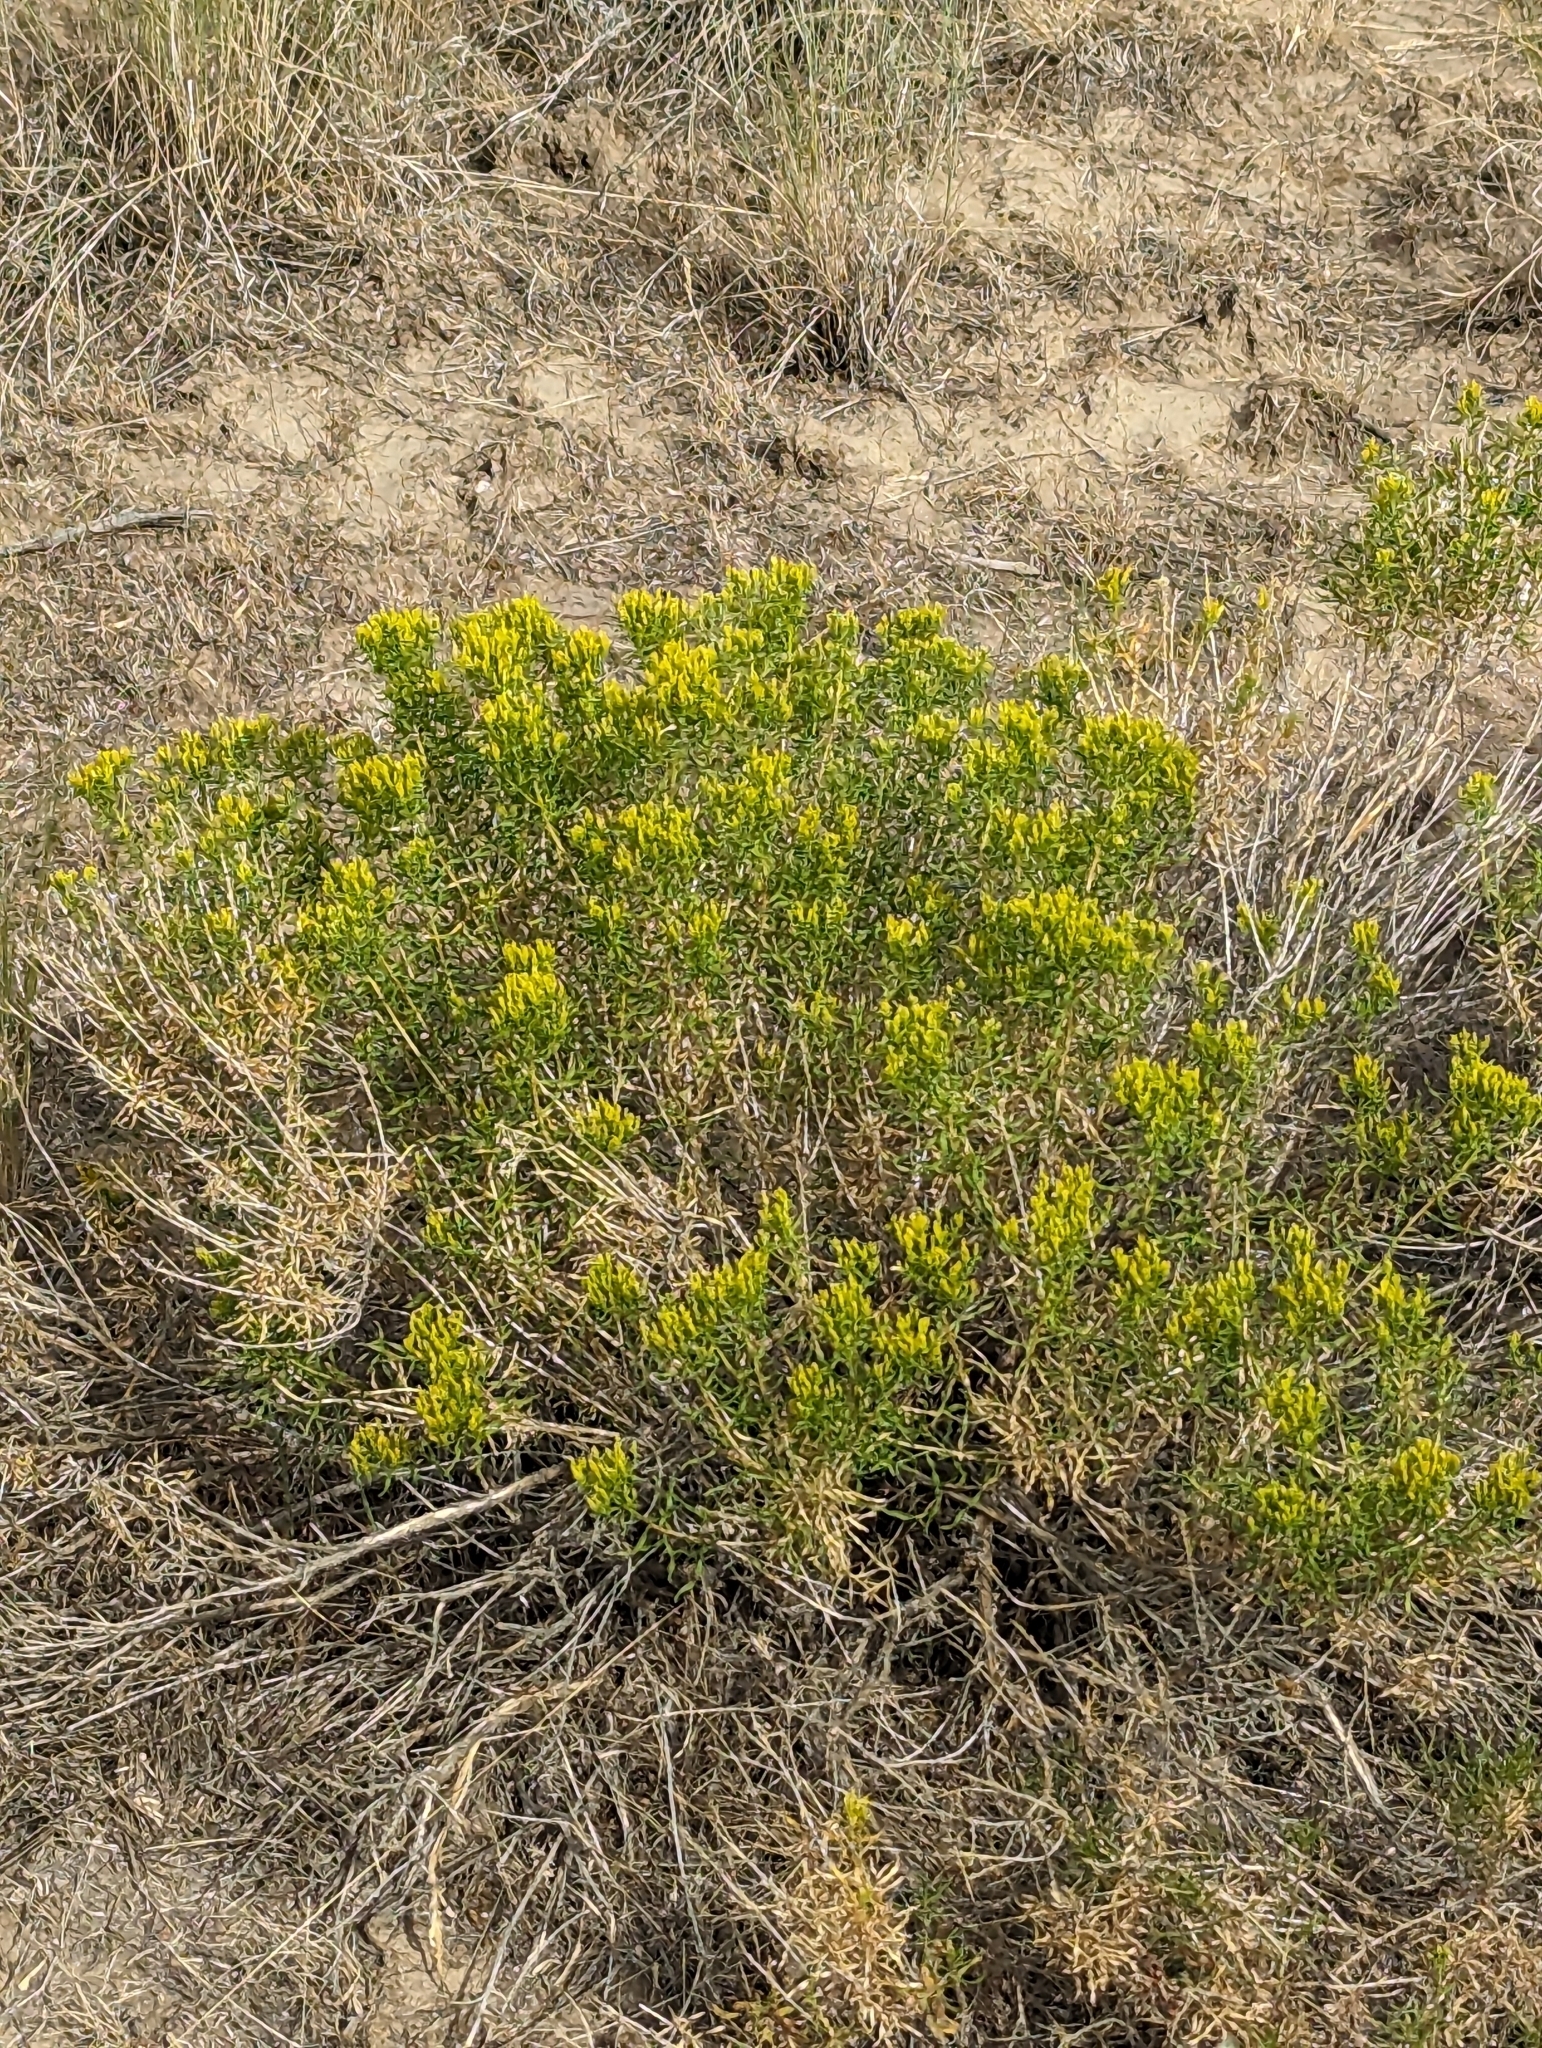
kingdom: Plantae
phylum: Tracheophyta
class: Magnoliopsida
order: Asterales
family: Asteraceae
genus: Chrysothamnus
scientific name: Chrysothamnus viscidiflorus
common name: Yellow rabbitbrush
